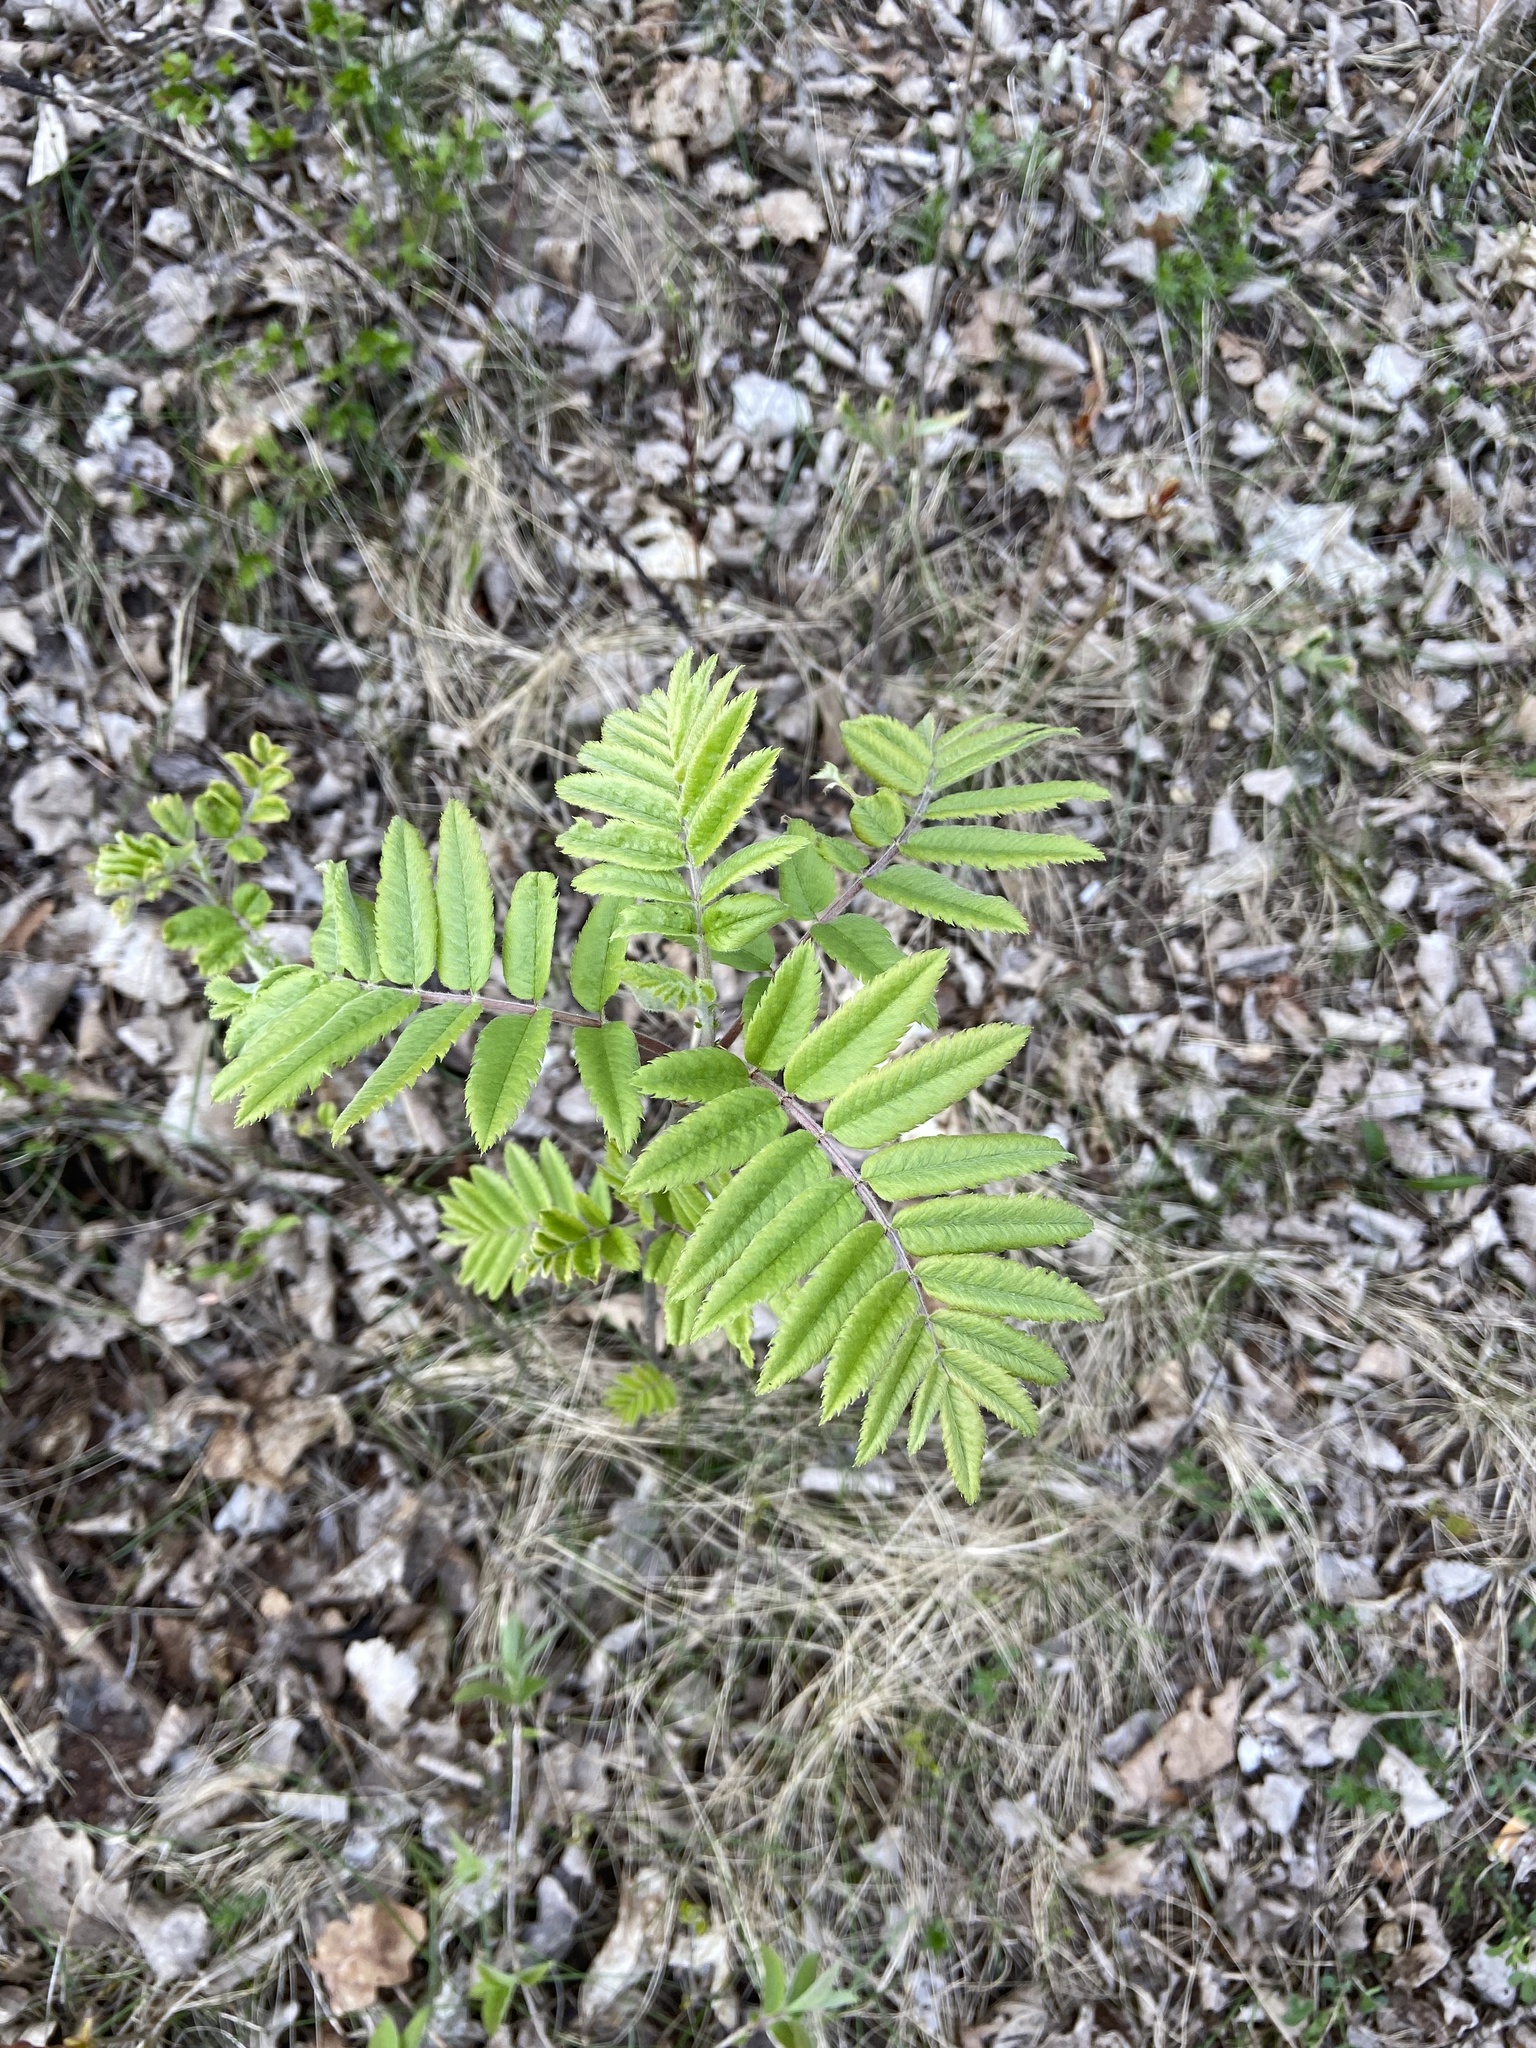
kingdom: Plantae
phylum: Tracheophyta
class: Magnoliopsida
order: Rosales
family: Rosaceae
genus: Sorbus
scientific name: Sorbus aucuparia
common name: Rowan
